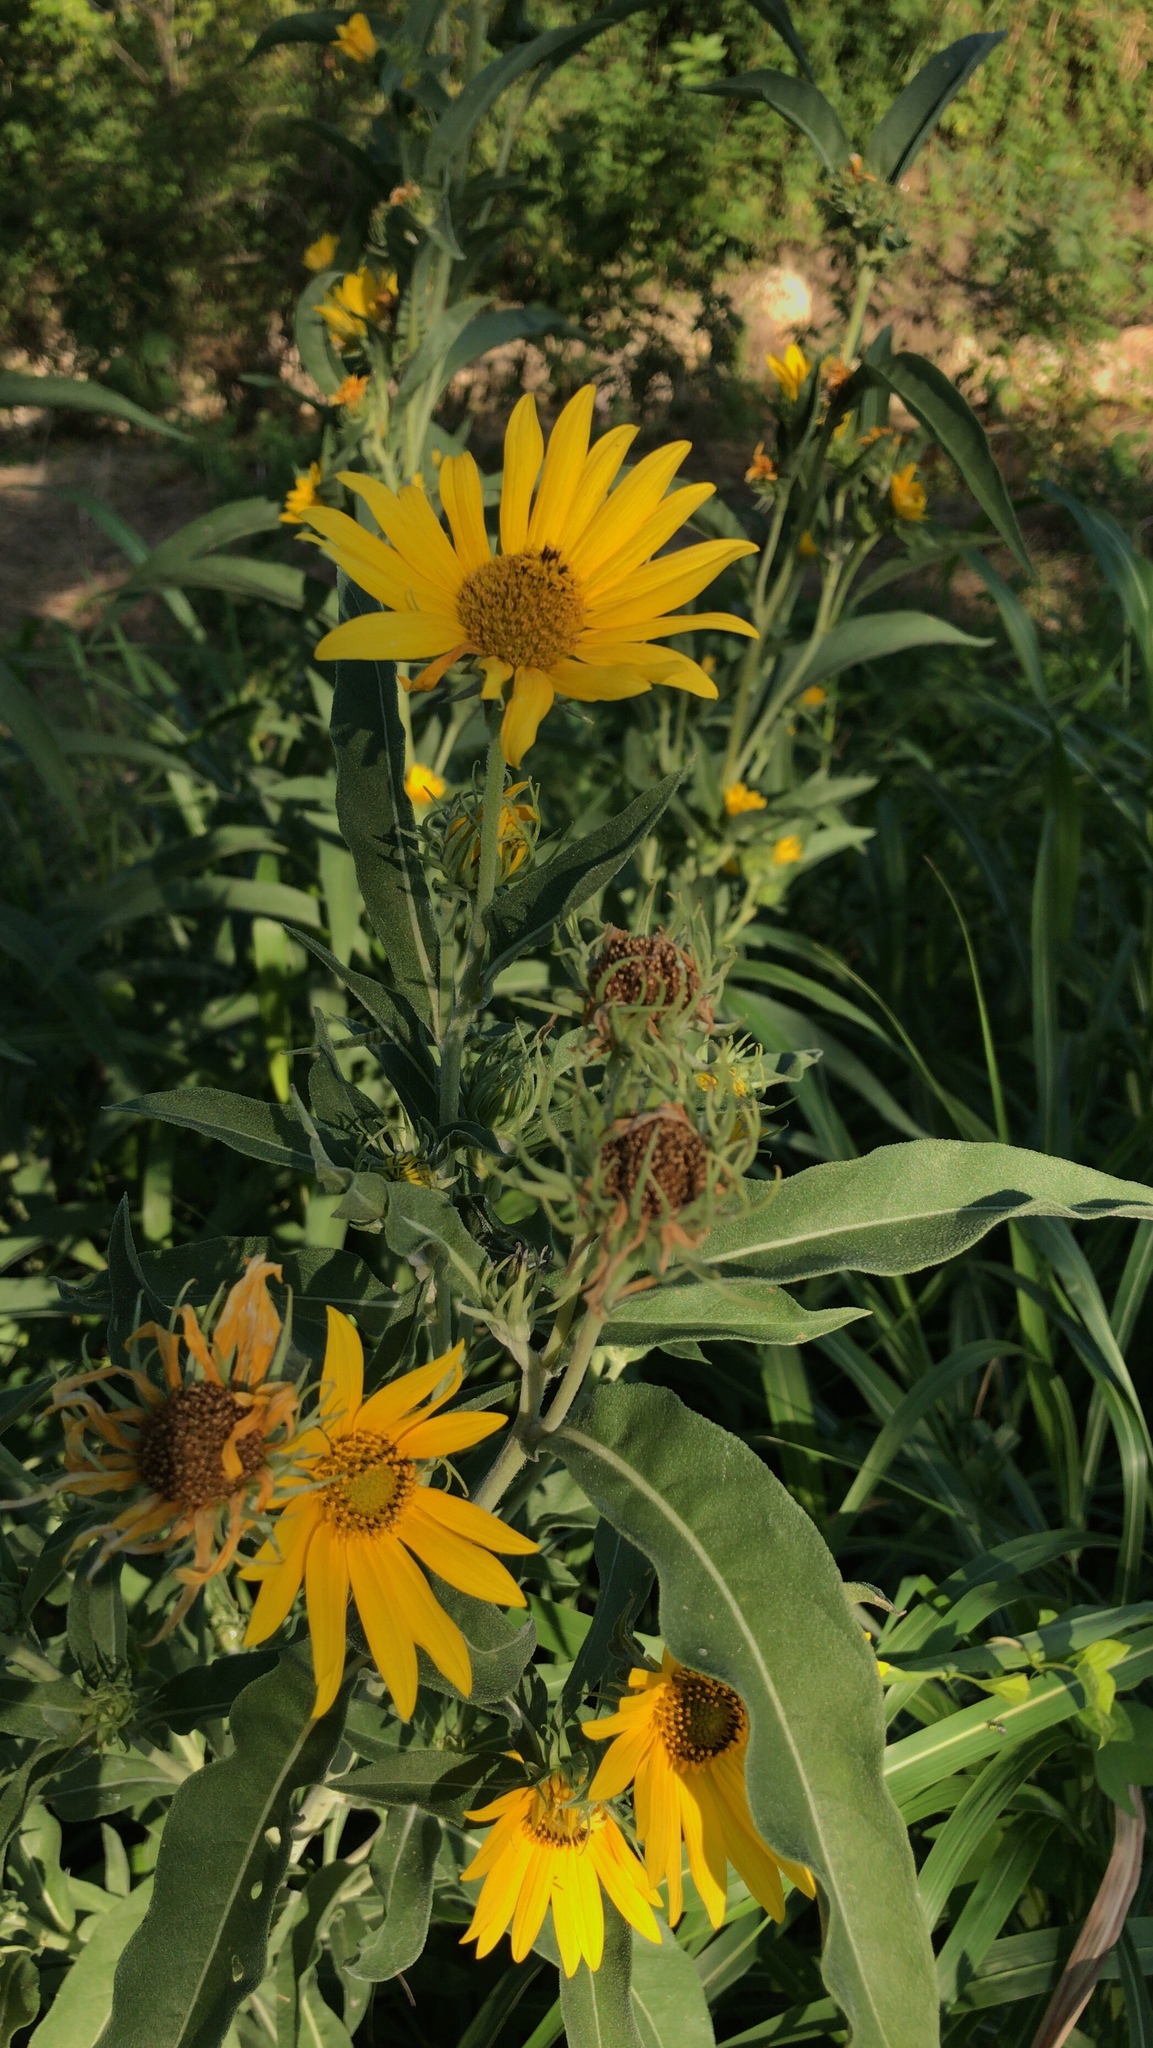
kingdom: Plantae
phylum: Tracheophyta
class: Magnoliopsida
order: Asterales
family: Asteraceae
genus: Helianthus
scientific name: Helianthus maximiliani
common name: Maximilian's sunflower
